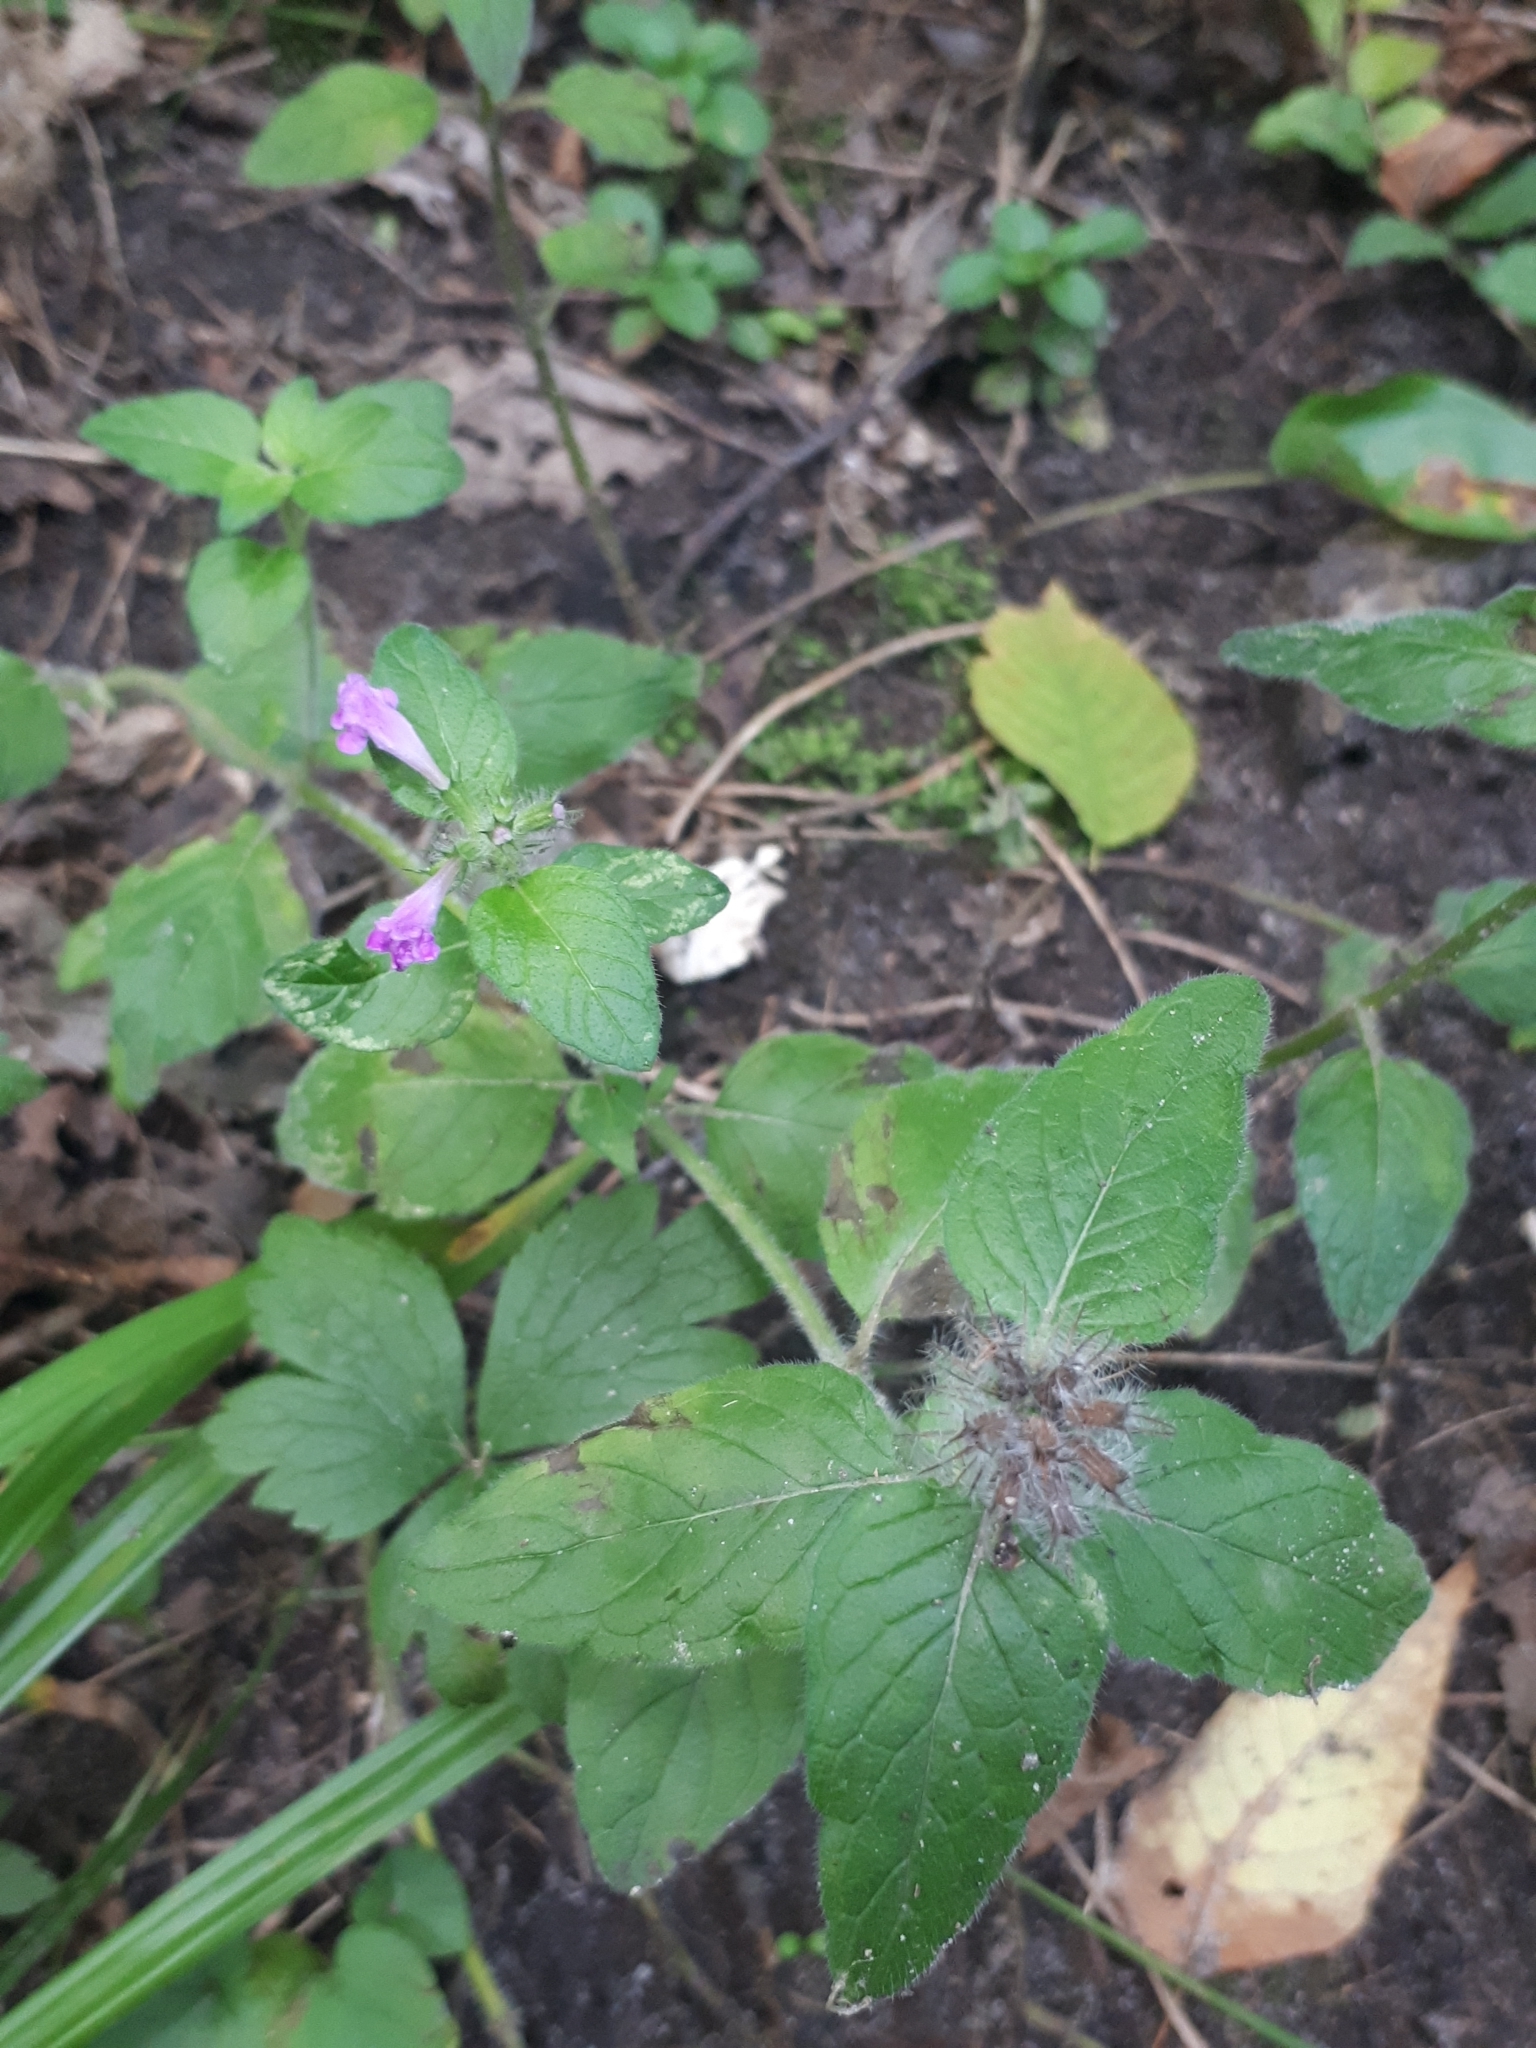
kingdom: Plantae
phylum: Tracheophyta
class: Magnoliopsida
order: Lamiales
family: Lamiaceae
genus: Clinopodium
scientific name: Clinopodium vulgare
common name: Wild basil
